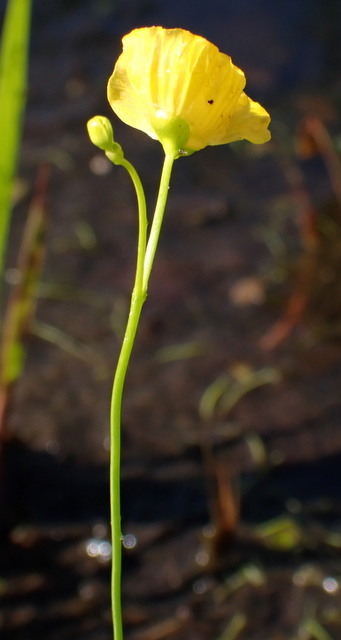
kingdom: Plantae
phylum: Tracheophyta
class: Magnoliopsida
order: Lamiales
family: Lentibulariaceae
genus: Utricularia
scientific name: Utricularia gibba
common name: Humped bladderwort
